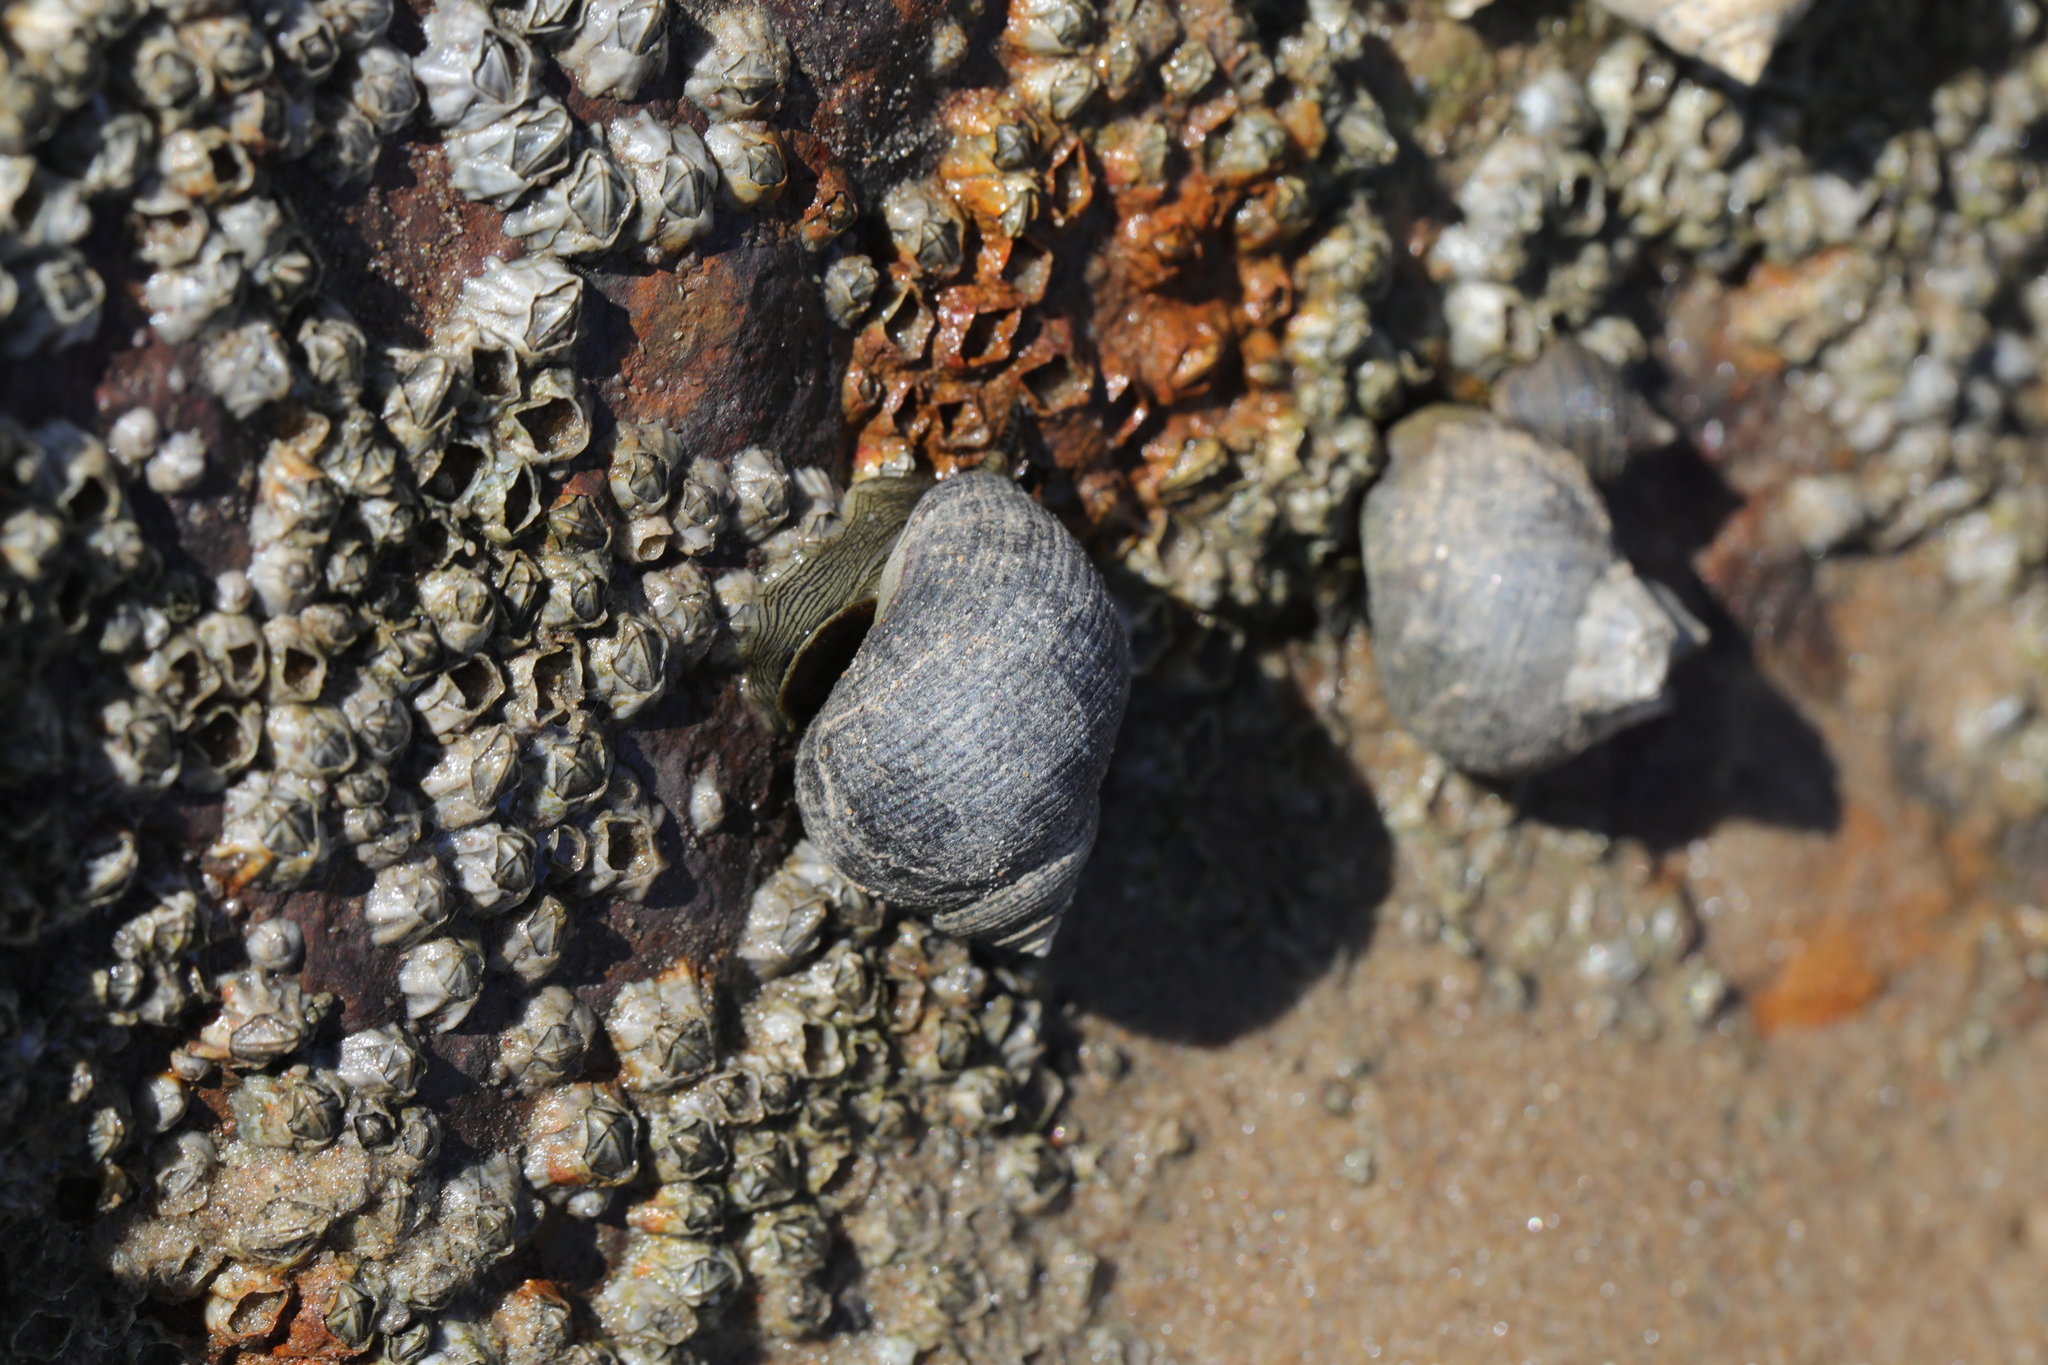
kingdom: Animalia
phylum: Mollusca
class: Gastropoda
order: Littorinimorpha
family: Littorinidae
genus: Littorina
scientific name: Littorina littorea
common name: Common periwinkle
